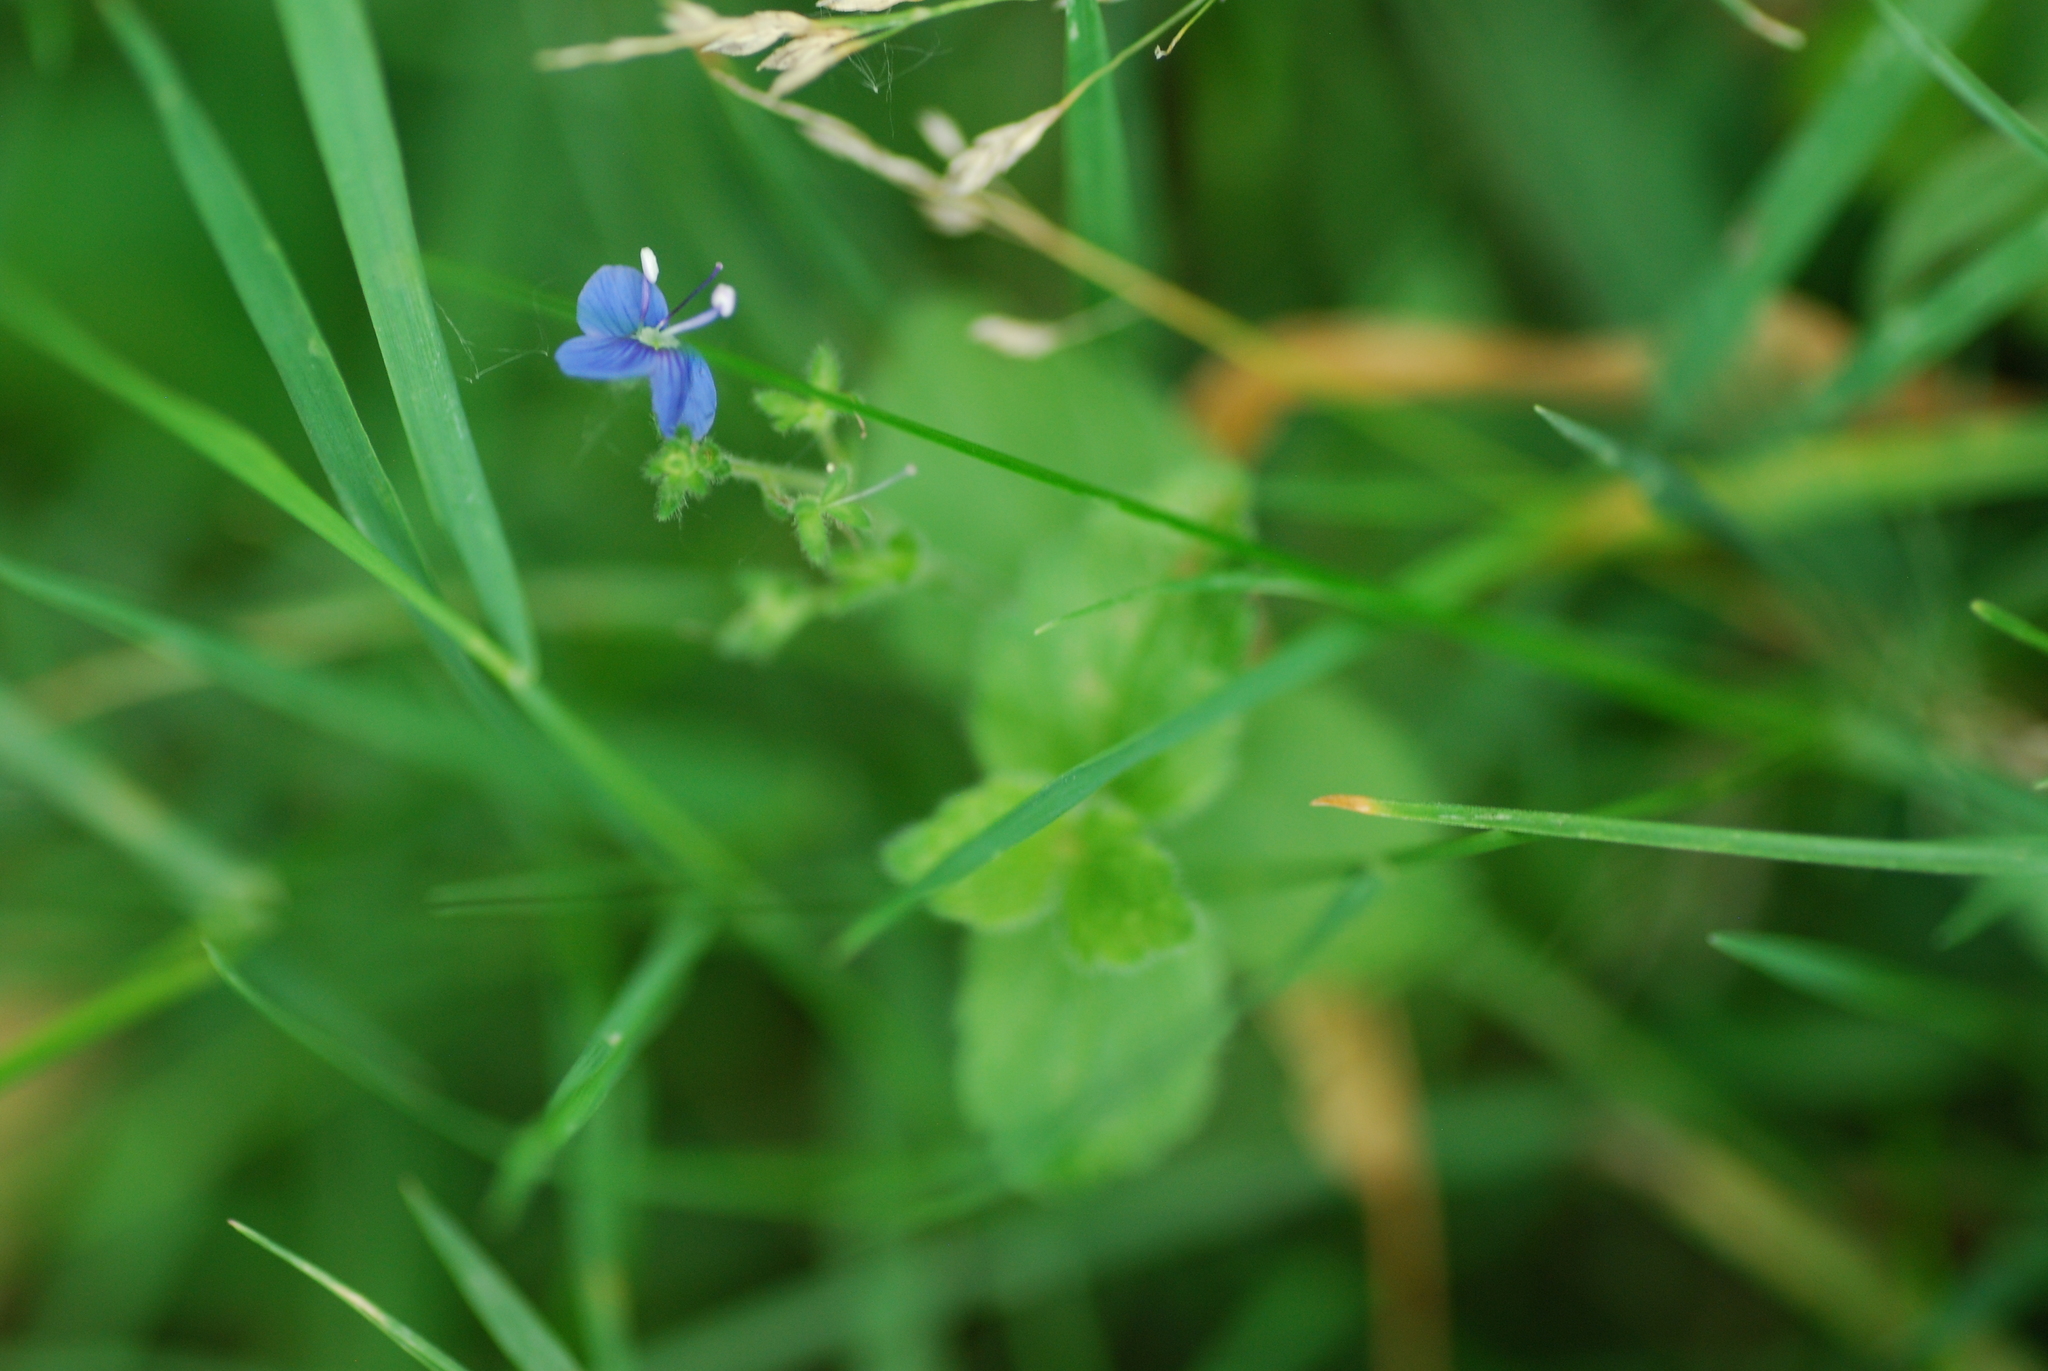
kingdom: Plantae
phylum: Tracheophyta
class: Magnoliopsida
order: Lamiales
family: Plantaginaceae
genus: Veronica
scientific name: Veronica chamaedrys
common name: Germander speedwell
